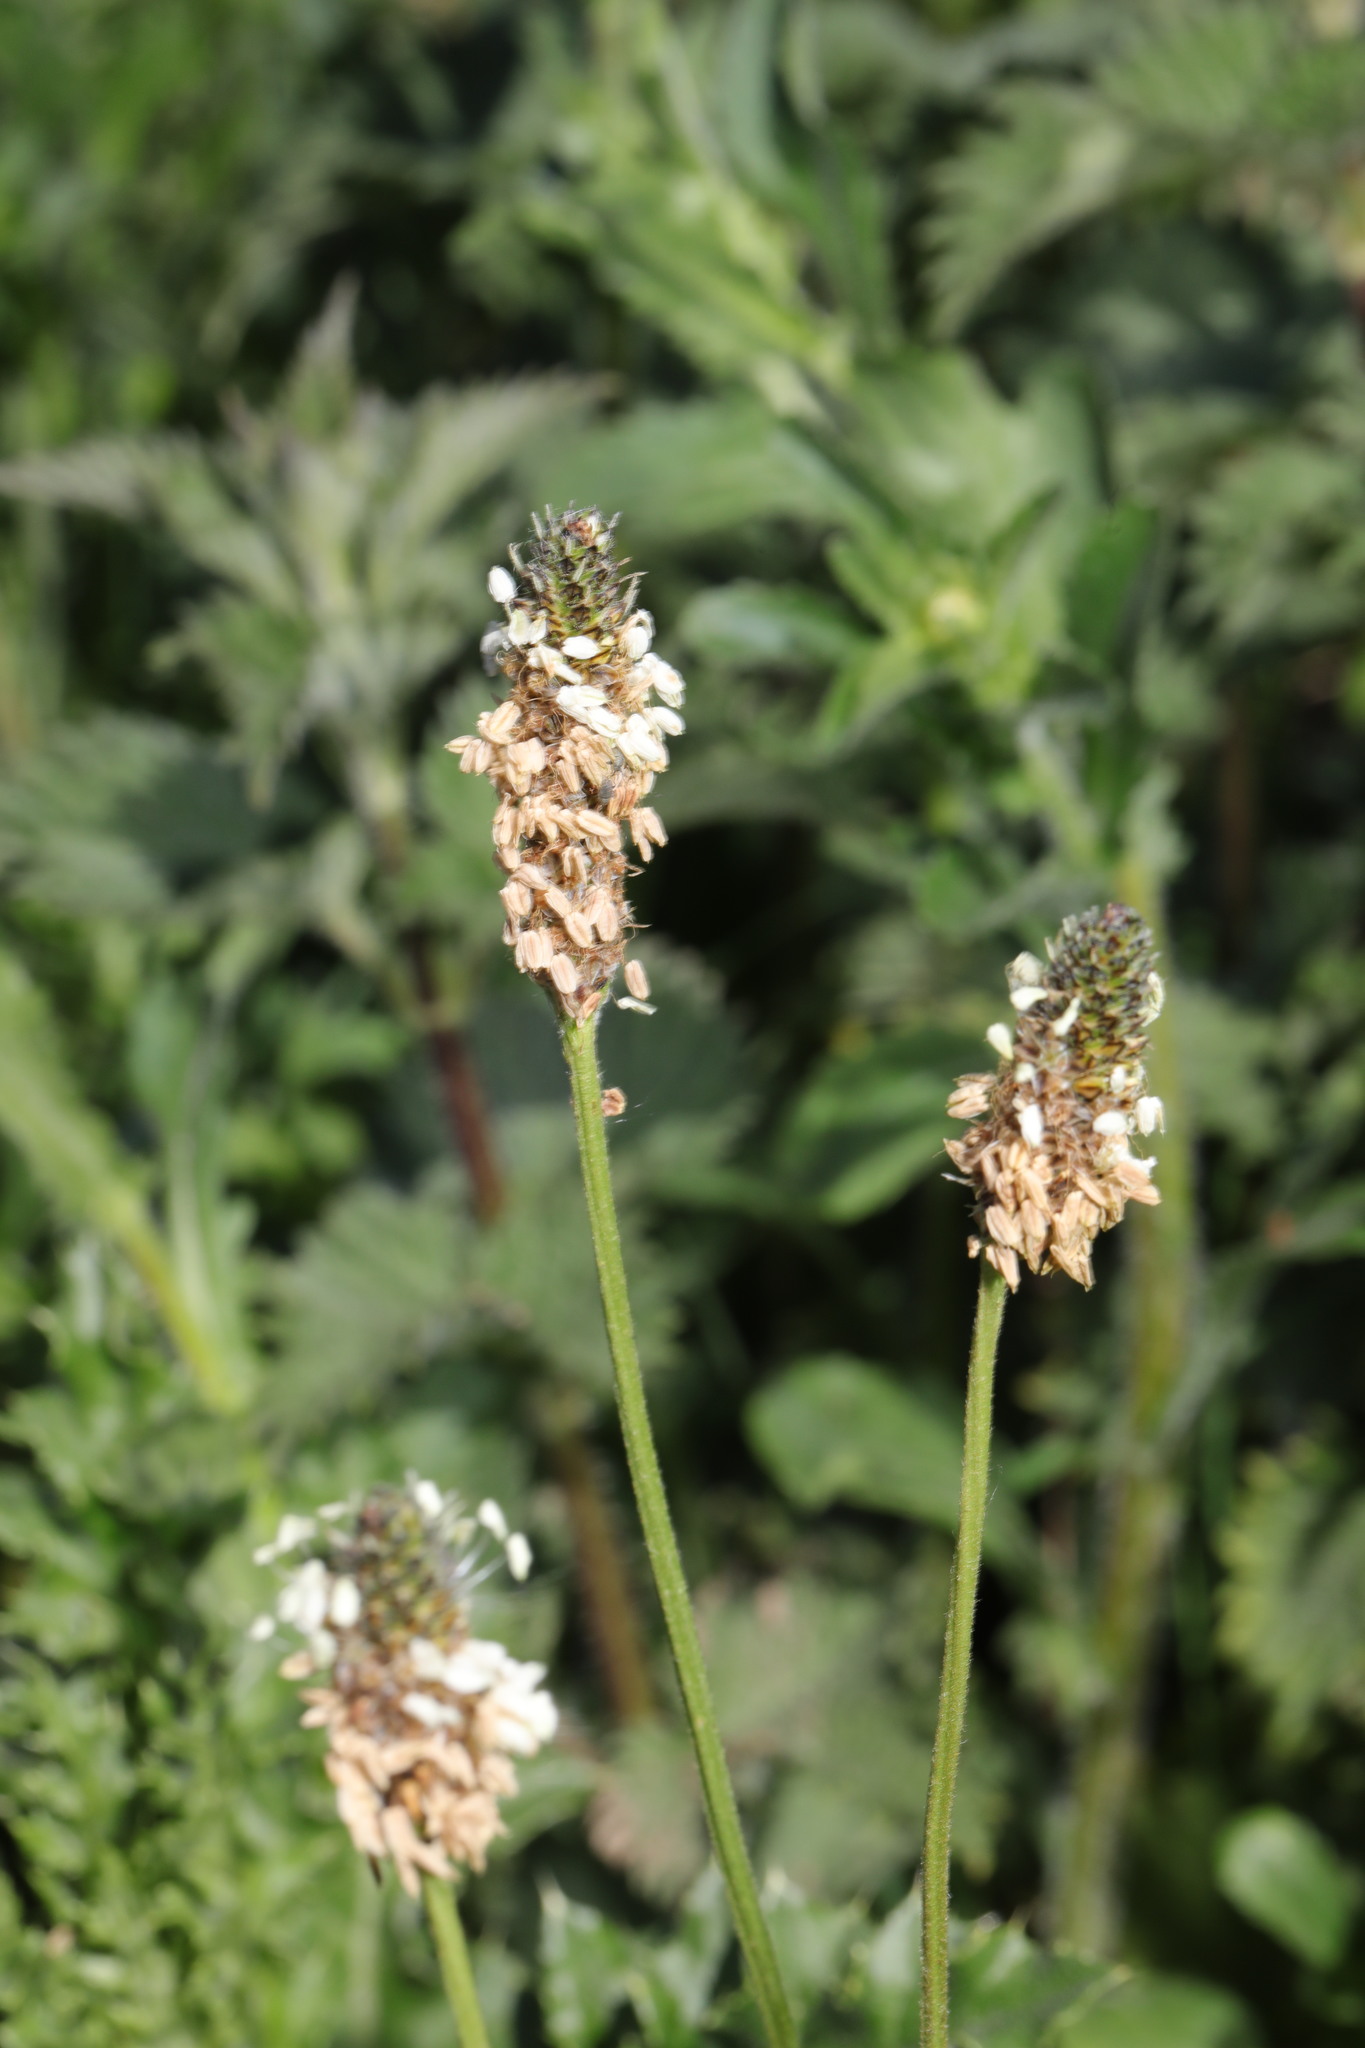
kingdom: Plantae
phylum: Tracheophyta
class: Magnoliopsida
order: Lamiales
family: Plantaginaceae
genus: Plantago
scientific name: Plantago lanceolata
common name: Ribwort plantain
